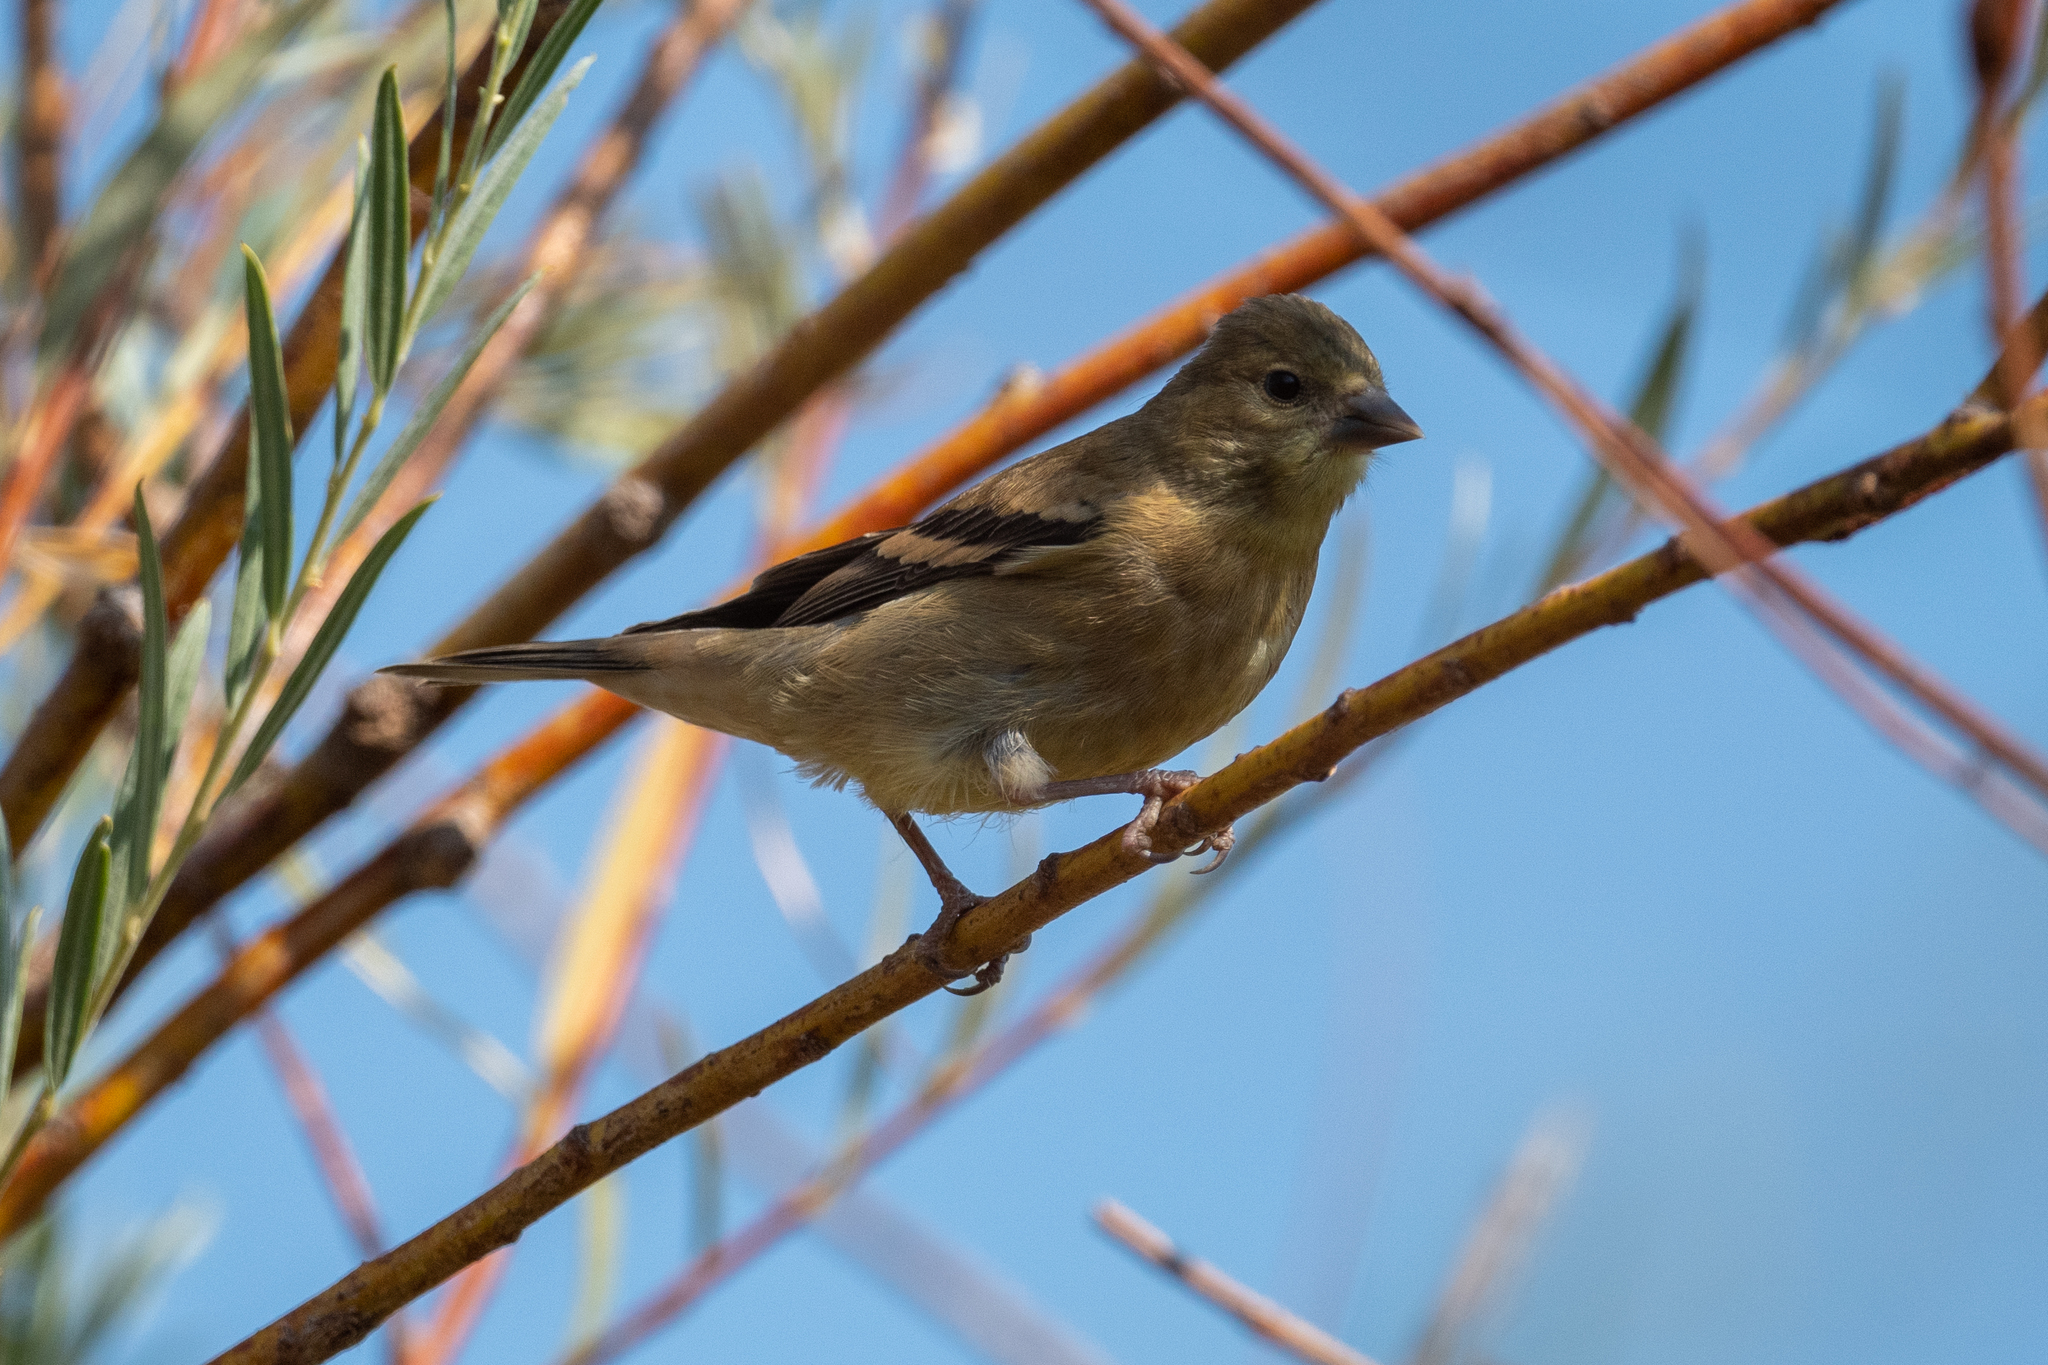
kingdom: Animalia
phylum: Chordata
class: Aves
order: Passeriformes
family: Fringillidae
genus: Spinus
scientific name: Spinus psaltria
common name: Lesser goldfinch
